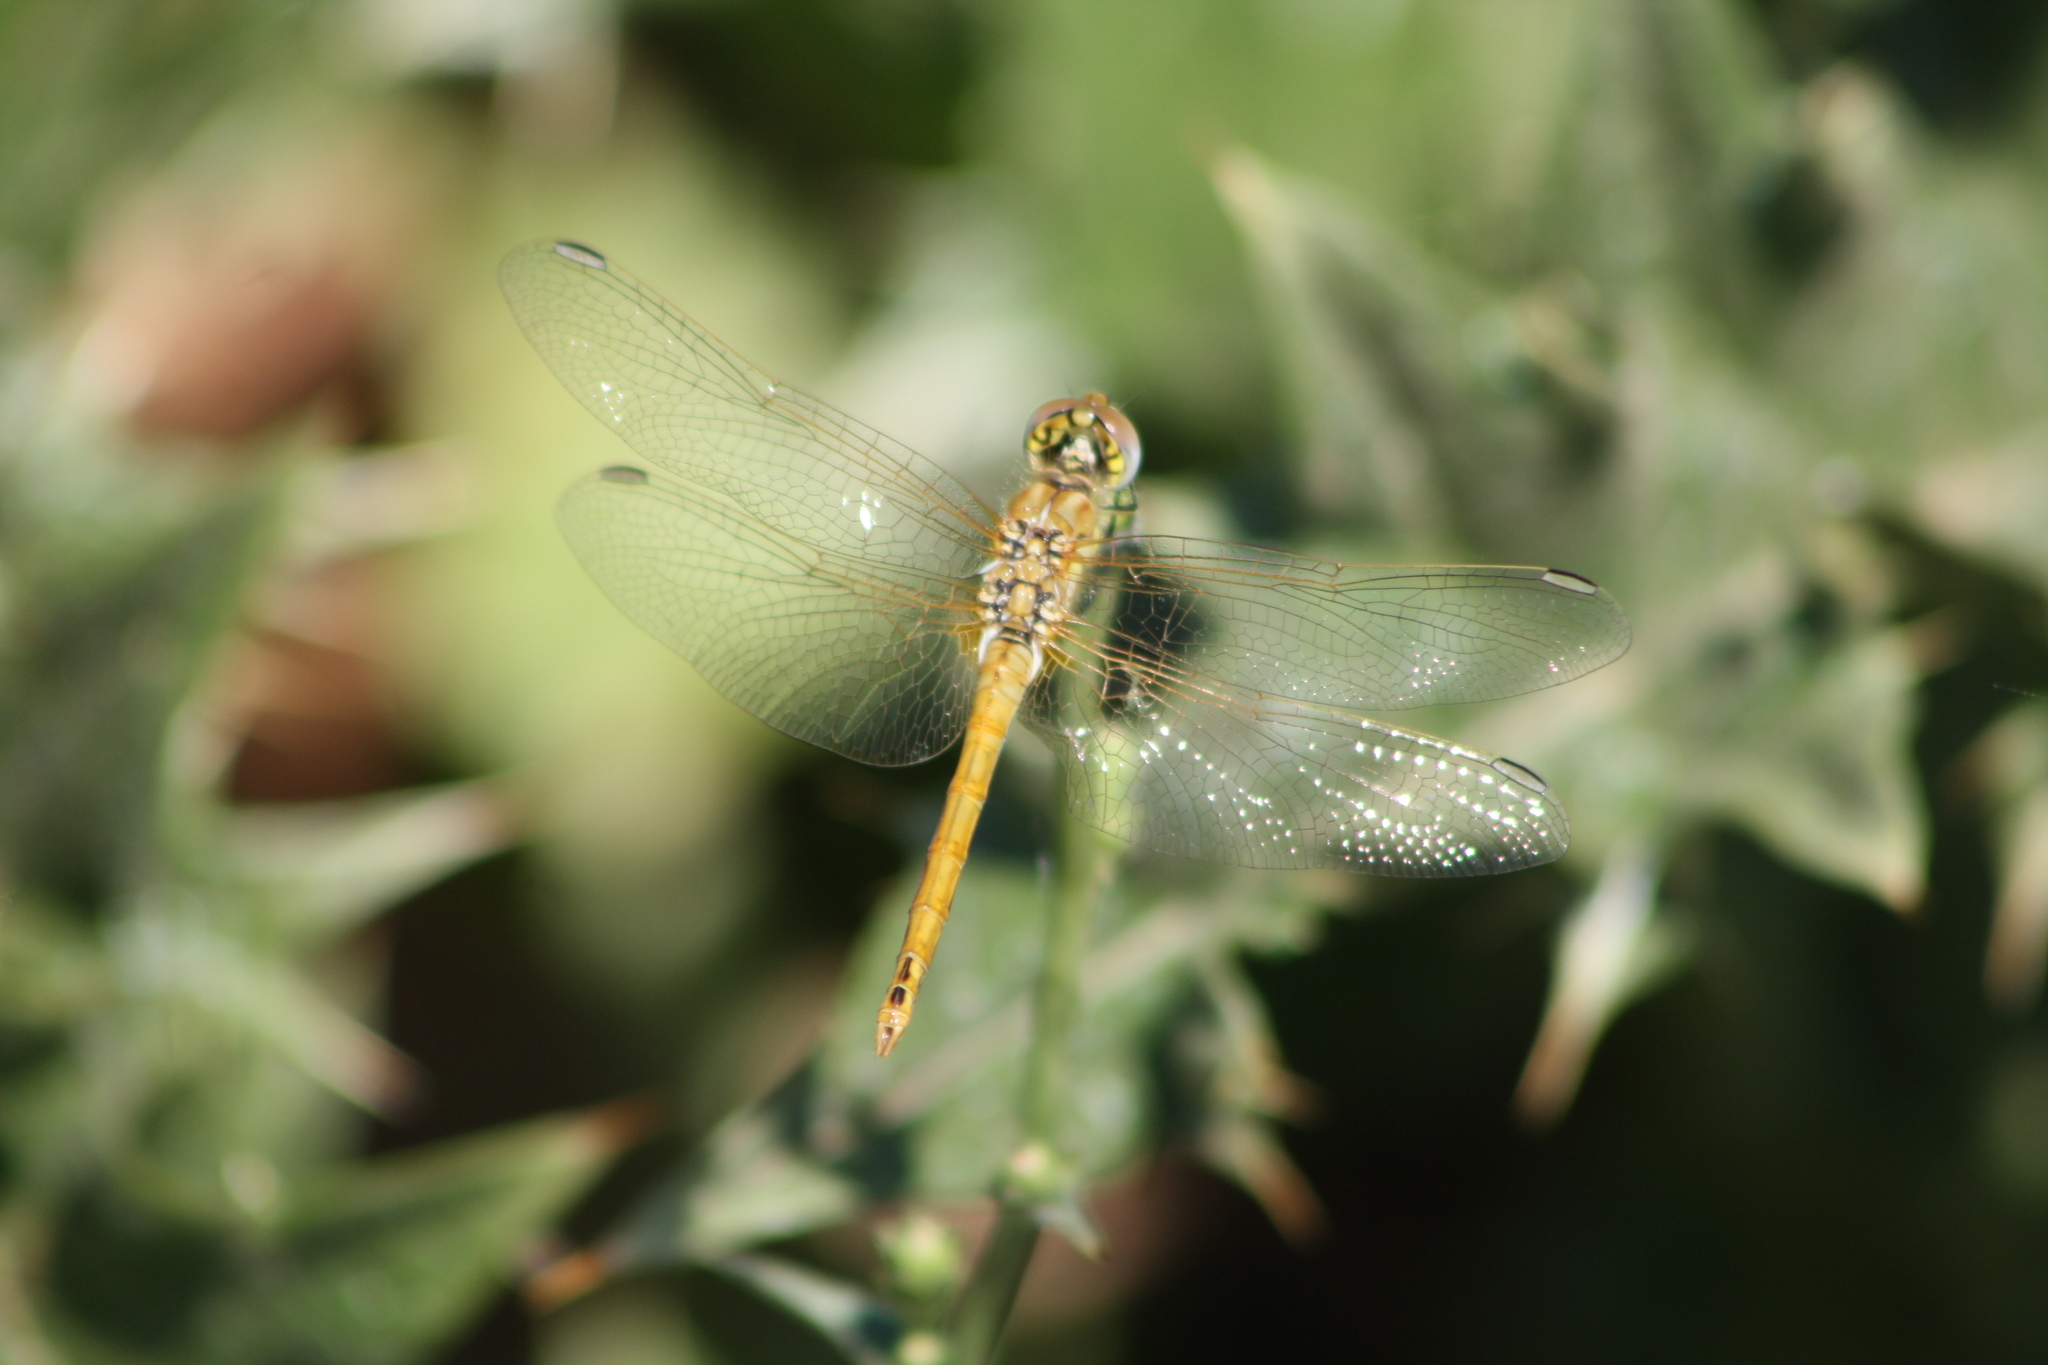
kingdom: Animalia
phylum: Arthropoda
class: Insecta
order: Odonata
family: Libellulidae
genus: Sympetrum
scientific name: Sympetrum fonscolombii
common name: Red-veined darter
